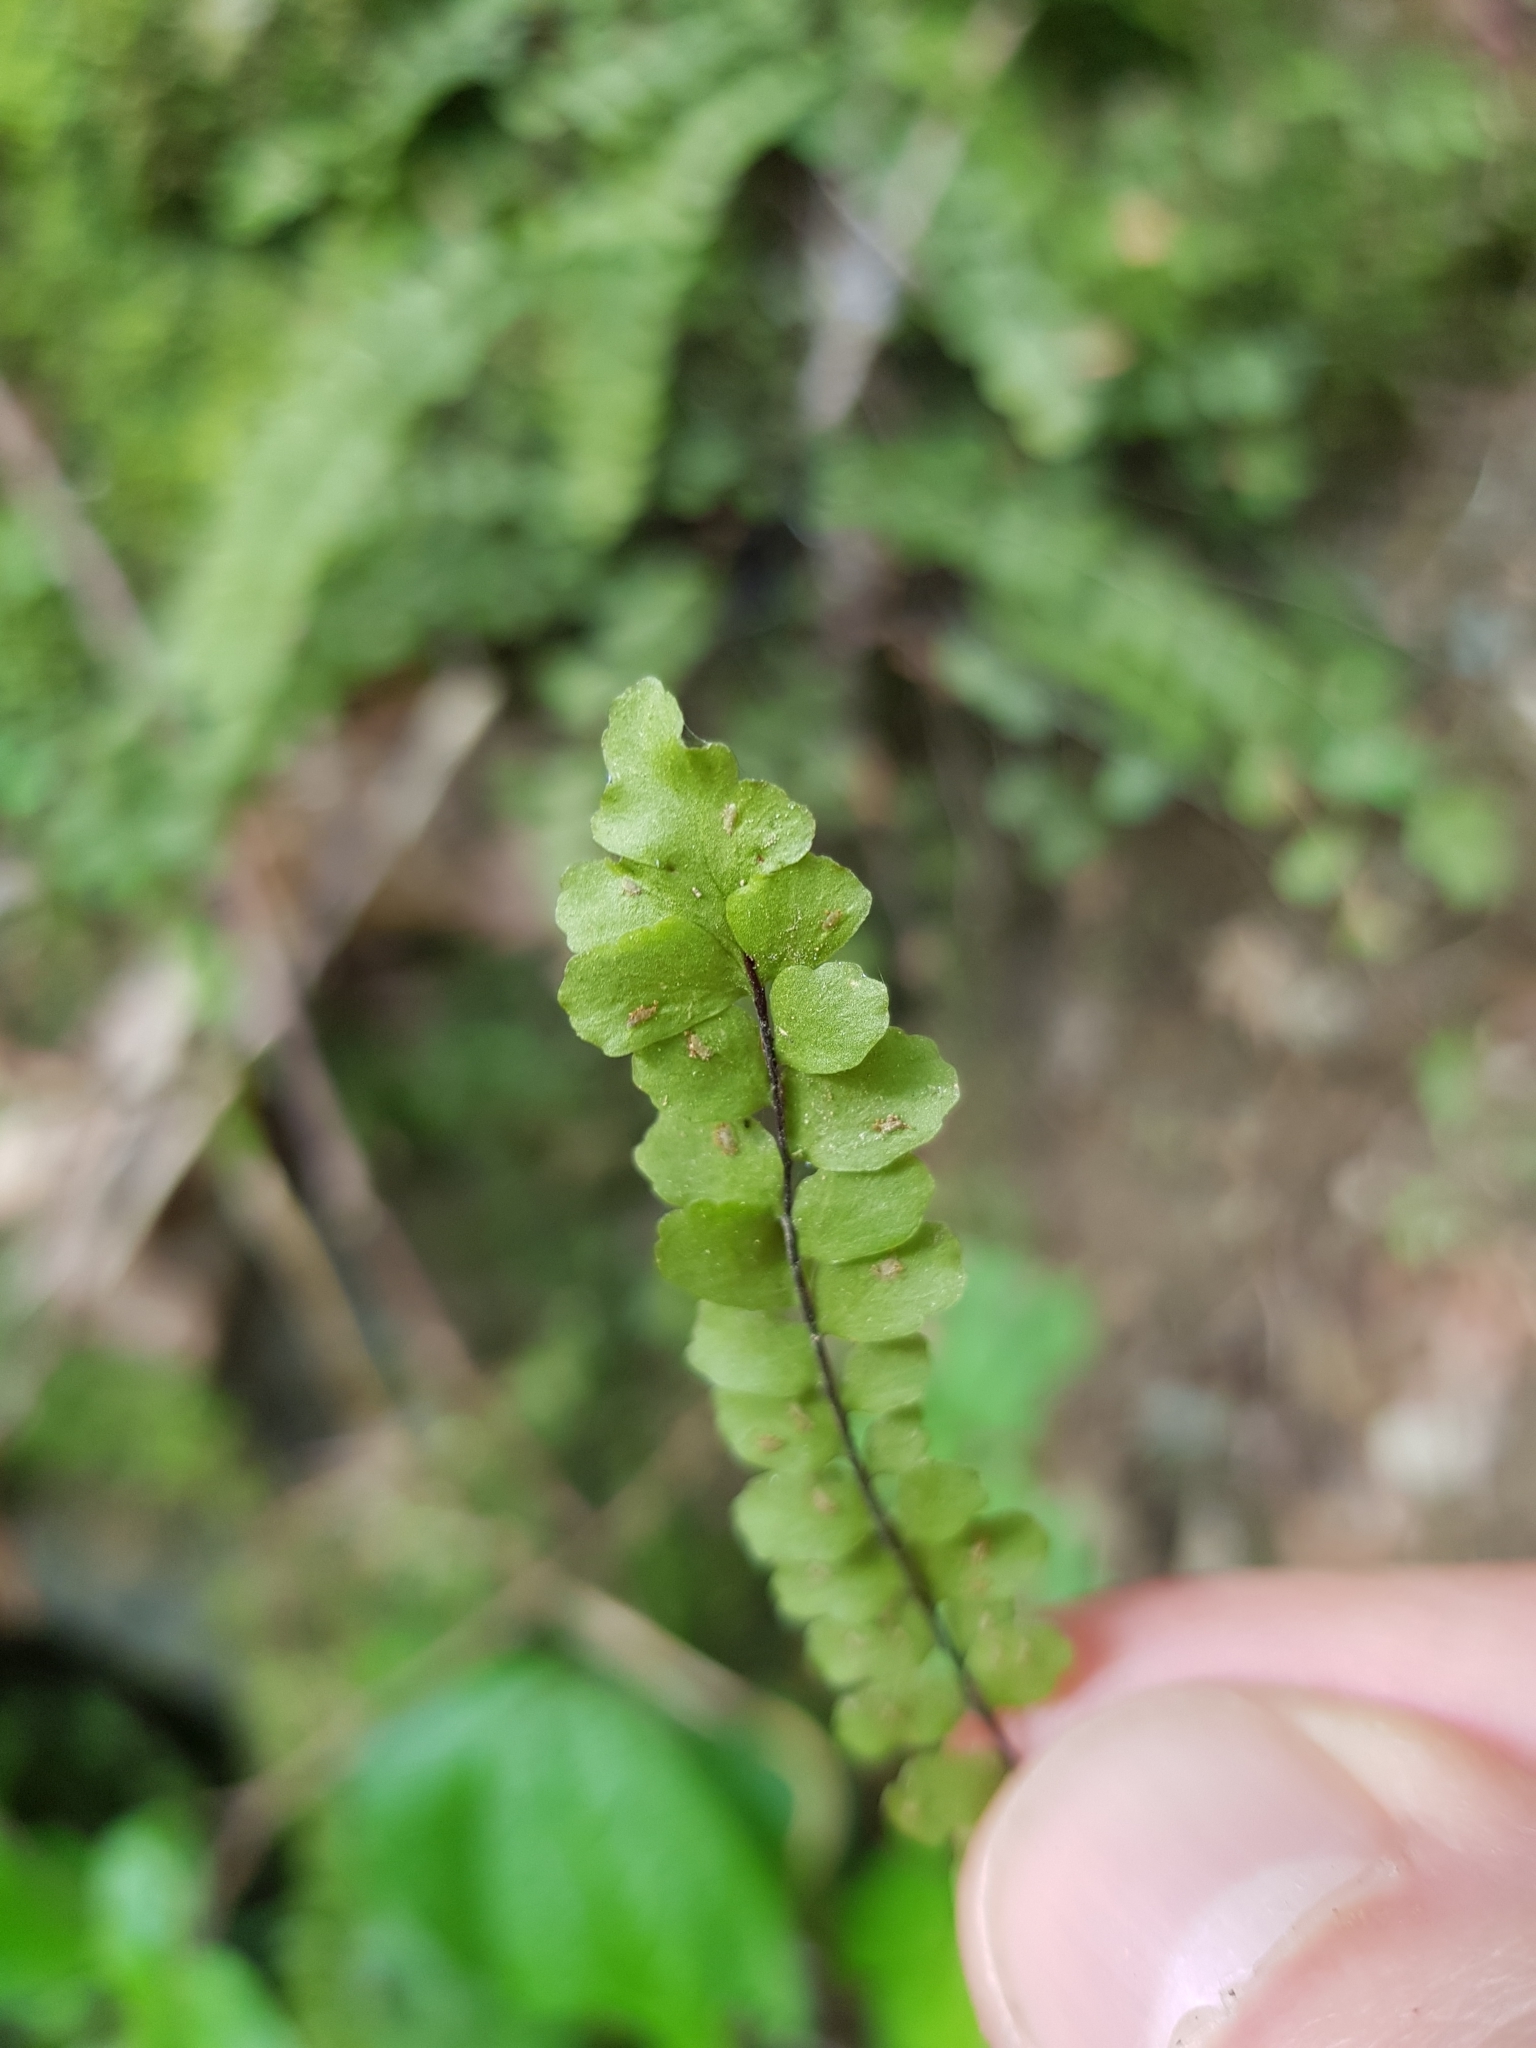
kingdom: Plantae
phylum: Tracheophyta
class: Polypodiopsida
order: Polypodiales
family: Aspleniaceae
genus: Asplenium
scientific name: Asplenium trichomanes
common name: Maidenhair spleenwort
